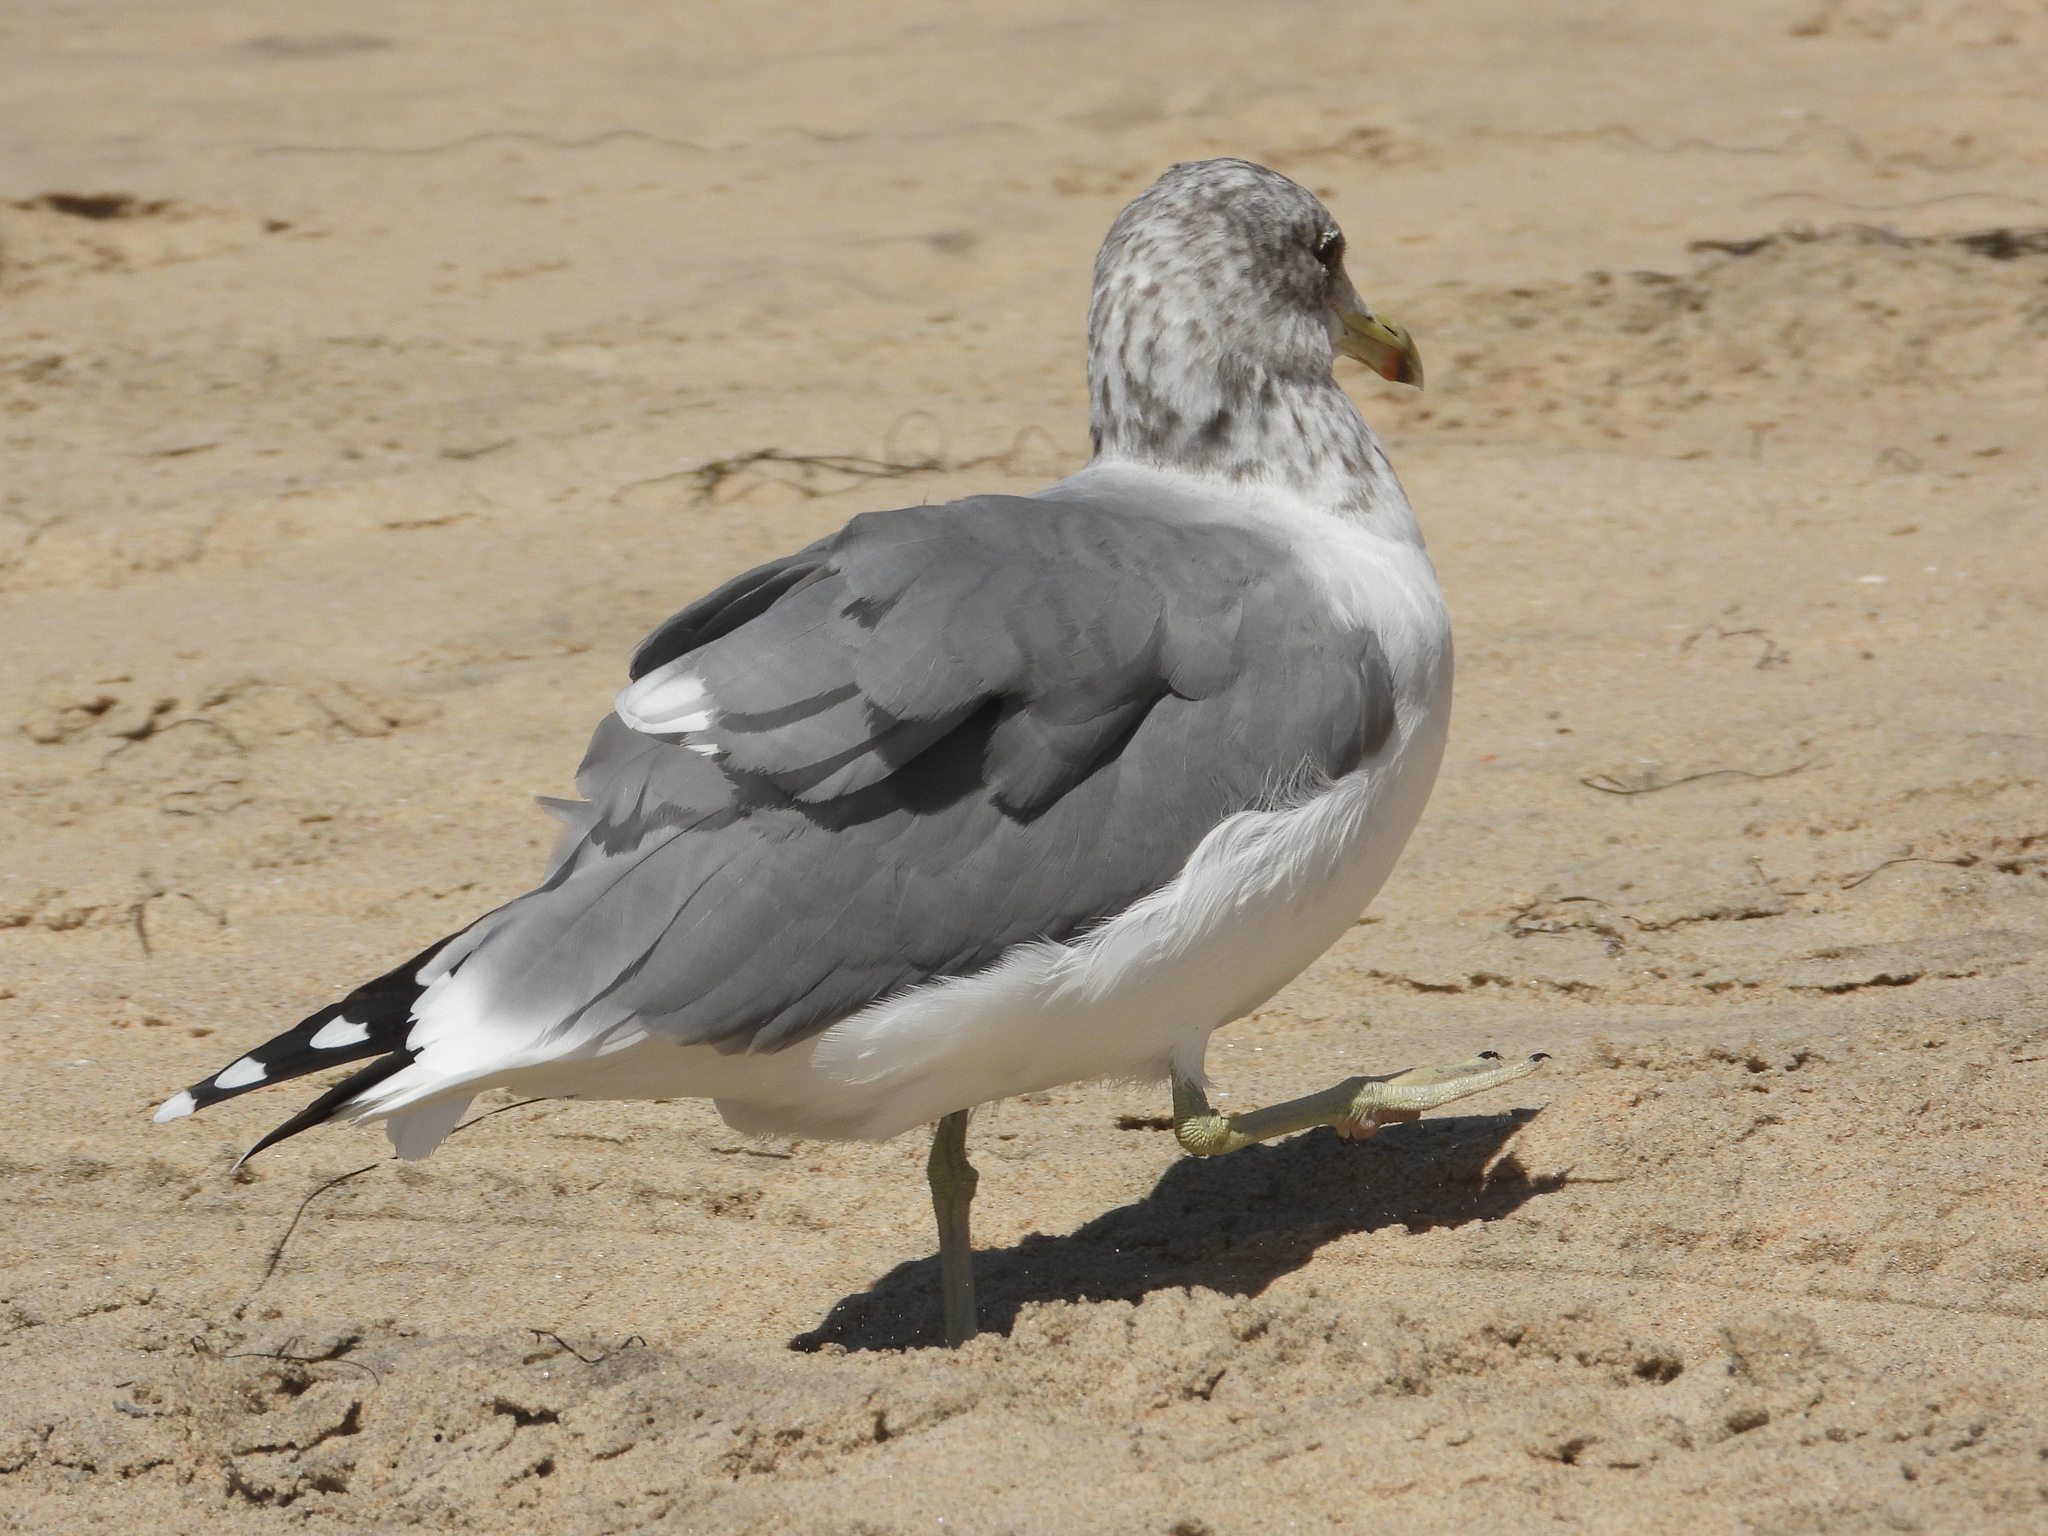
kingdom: Animalia
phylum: Chordata
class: Aves
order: Charadriiformes
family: Laridae
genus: Larus
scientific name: Larus californicus
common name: California gull
